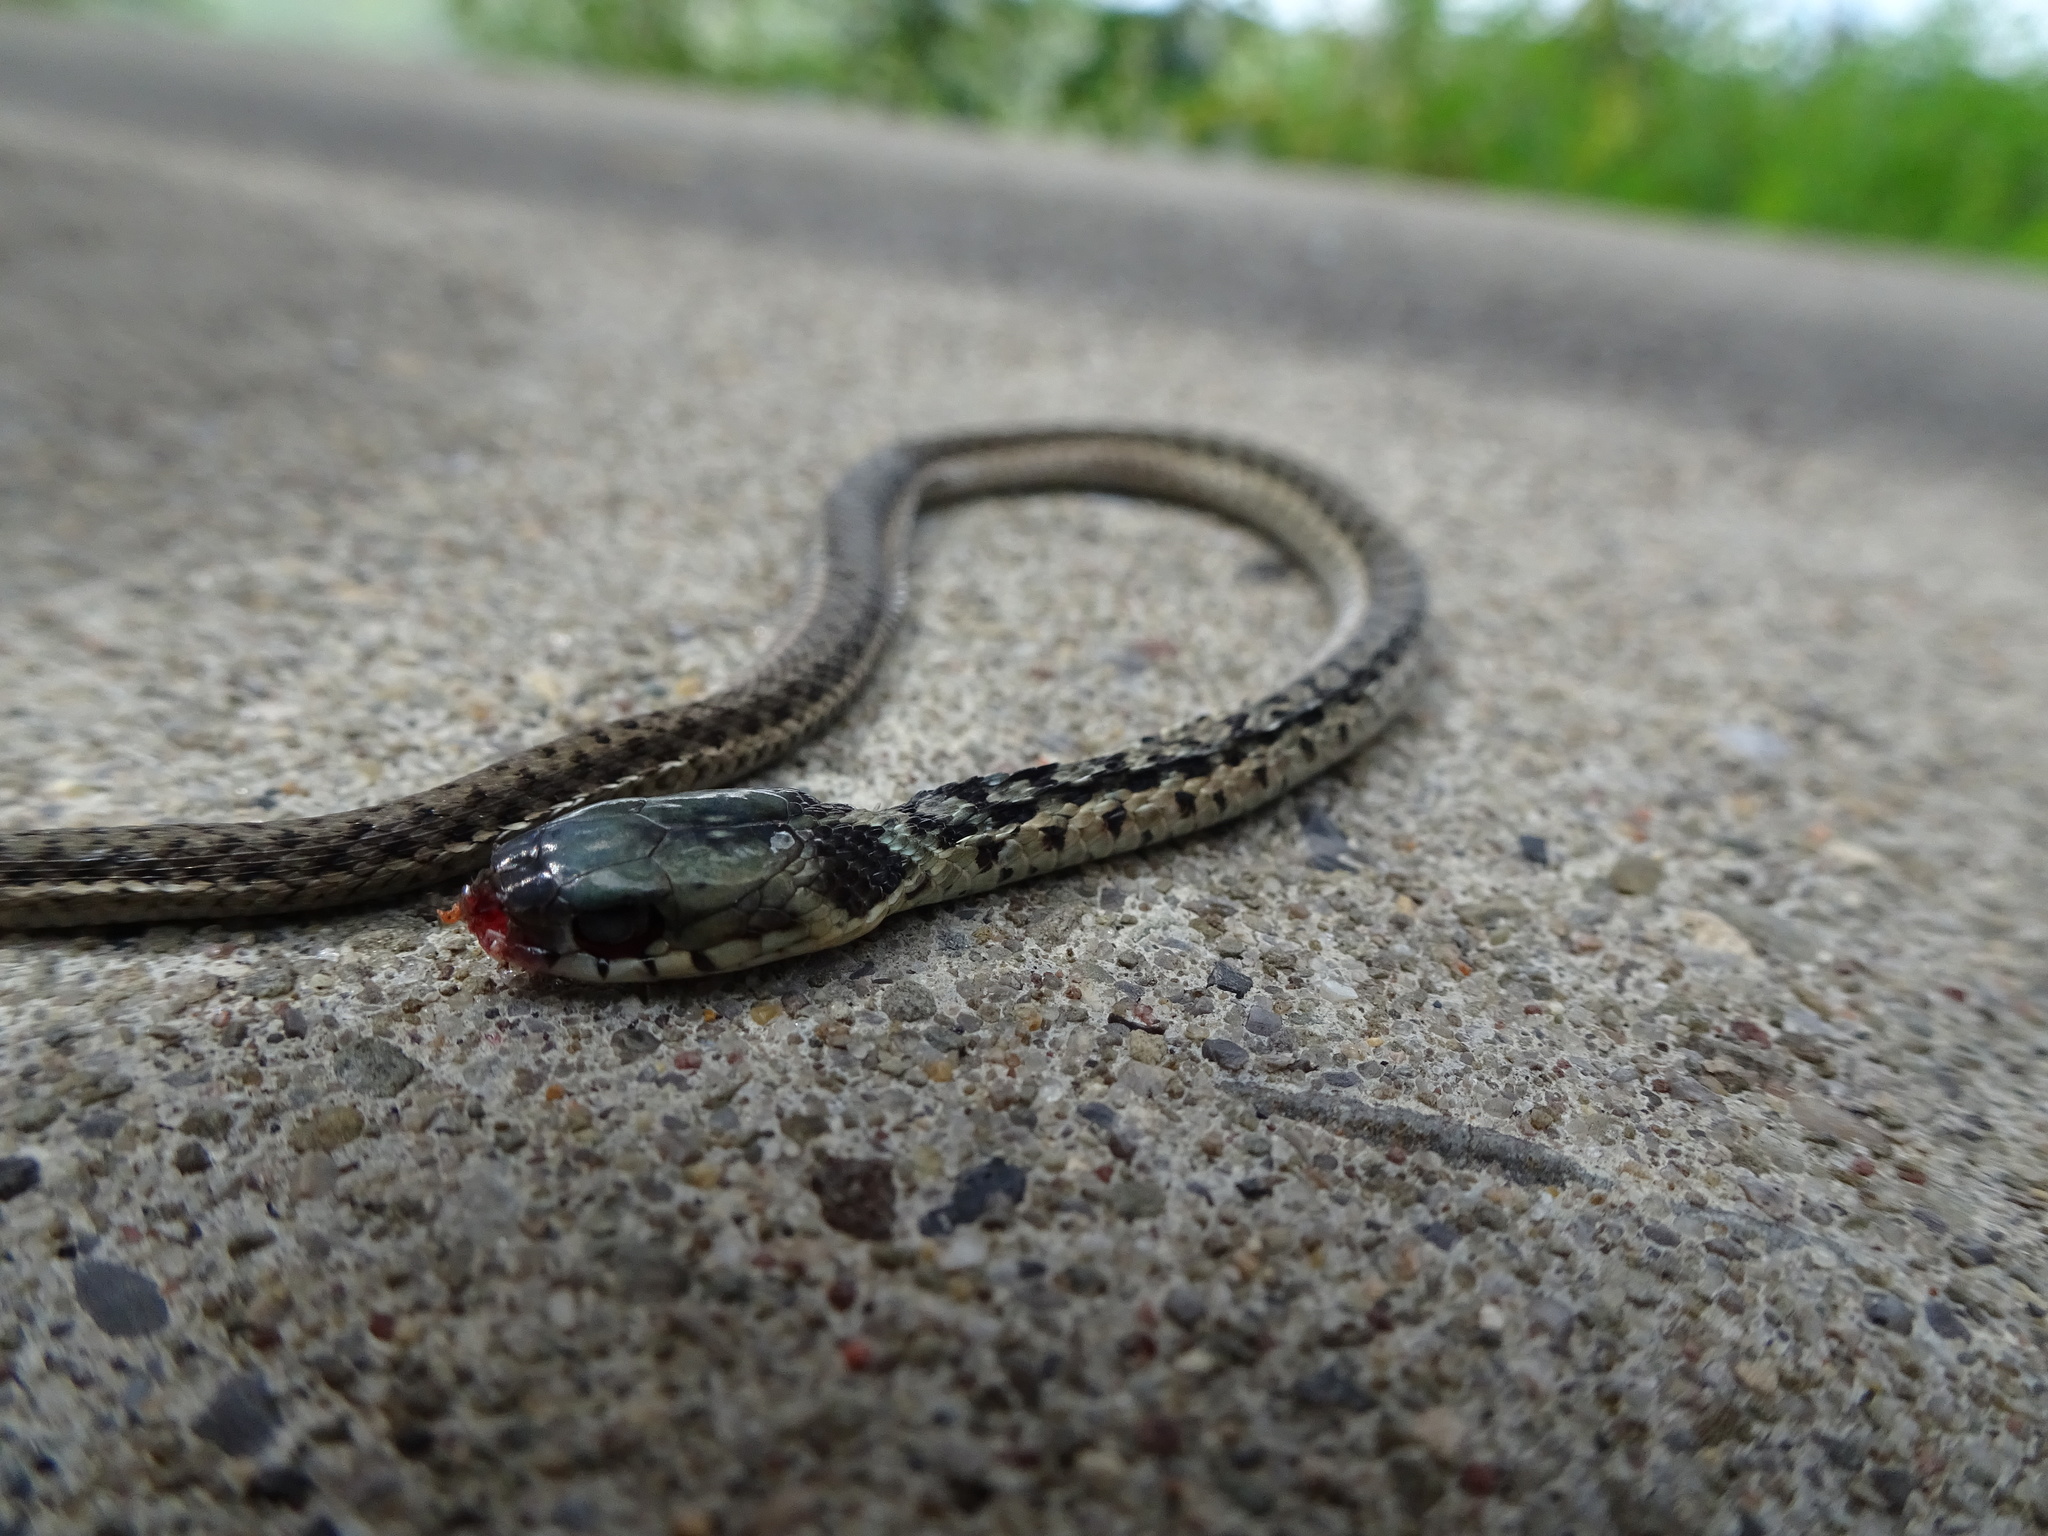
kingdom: Animalia
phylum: Chordata
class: Squamata
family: Colubridae
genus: Thamnophis
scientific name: Thamnophis sirtalis
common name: Common garter snake
